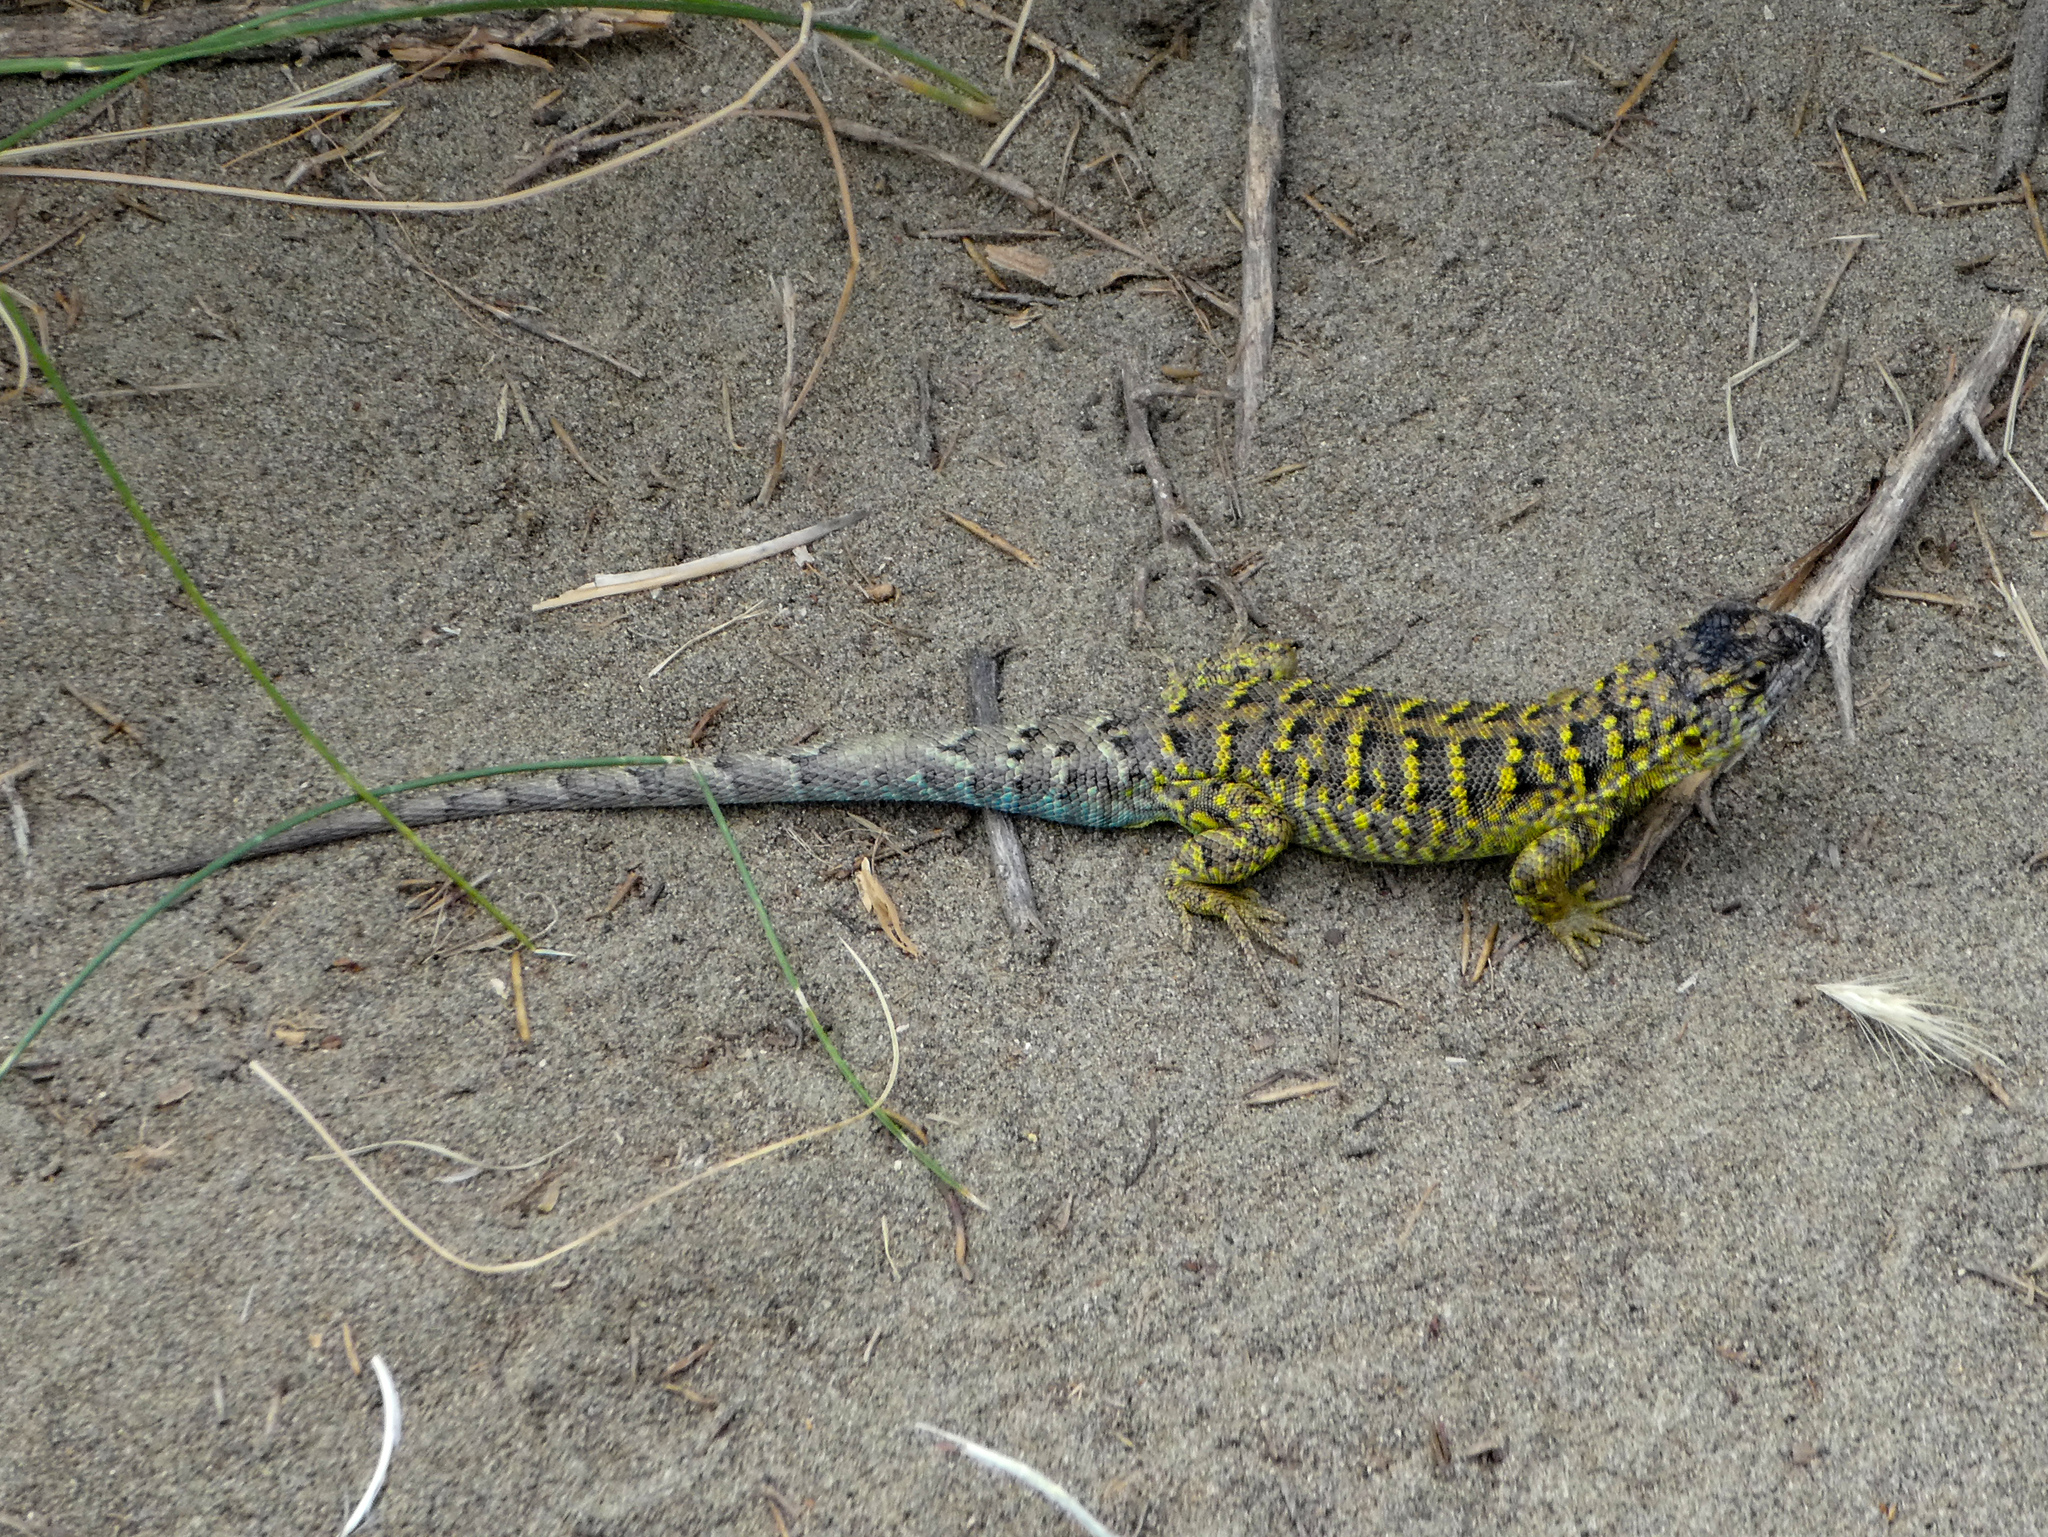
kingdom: Animalia
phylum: Chordata
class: Squamata
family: Liolaemidae
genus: Liolaemus
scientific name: Liolaemus melanops
